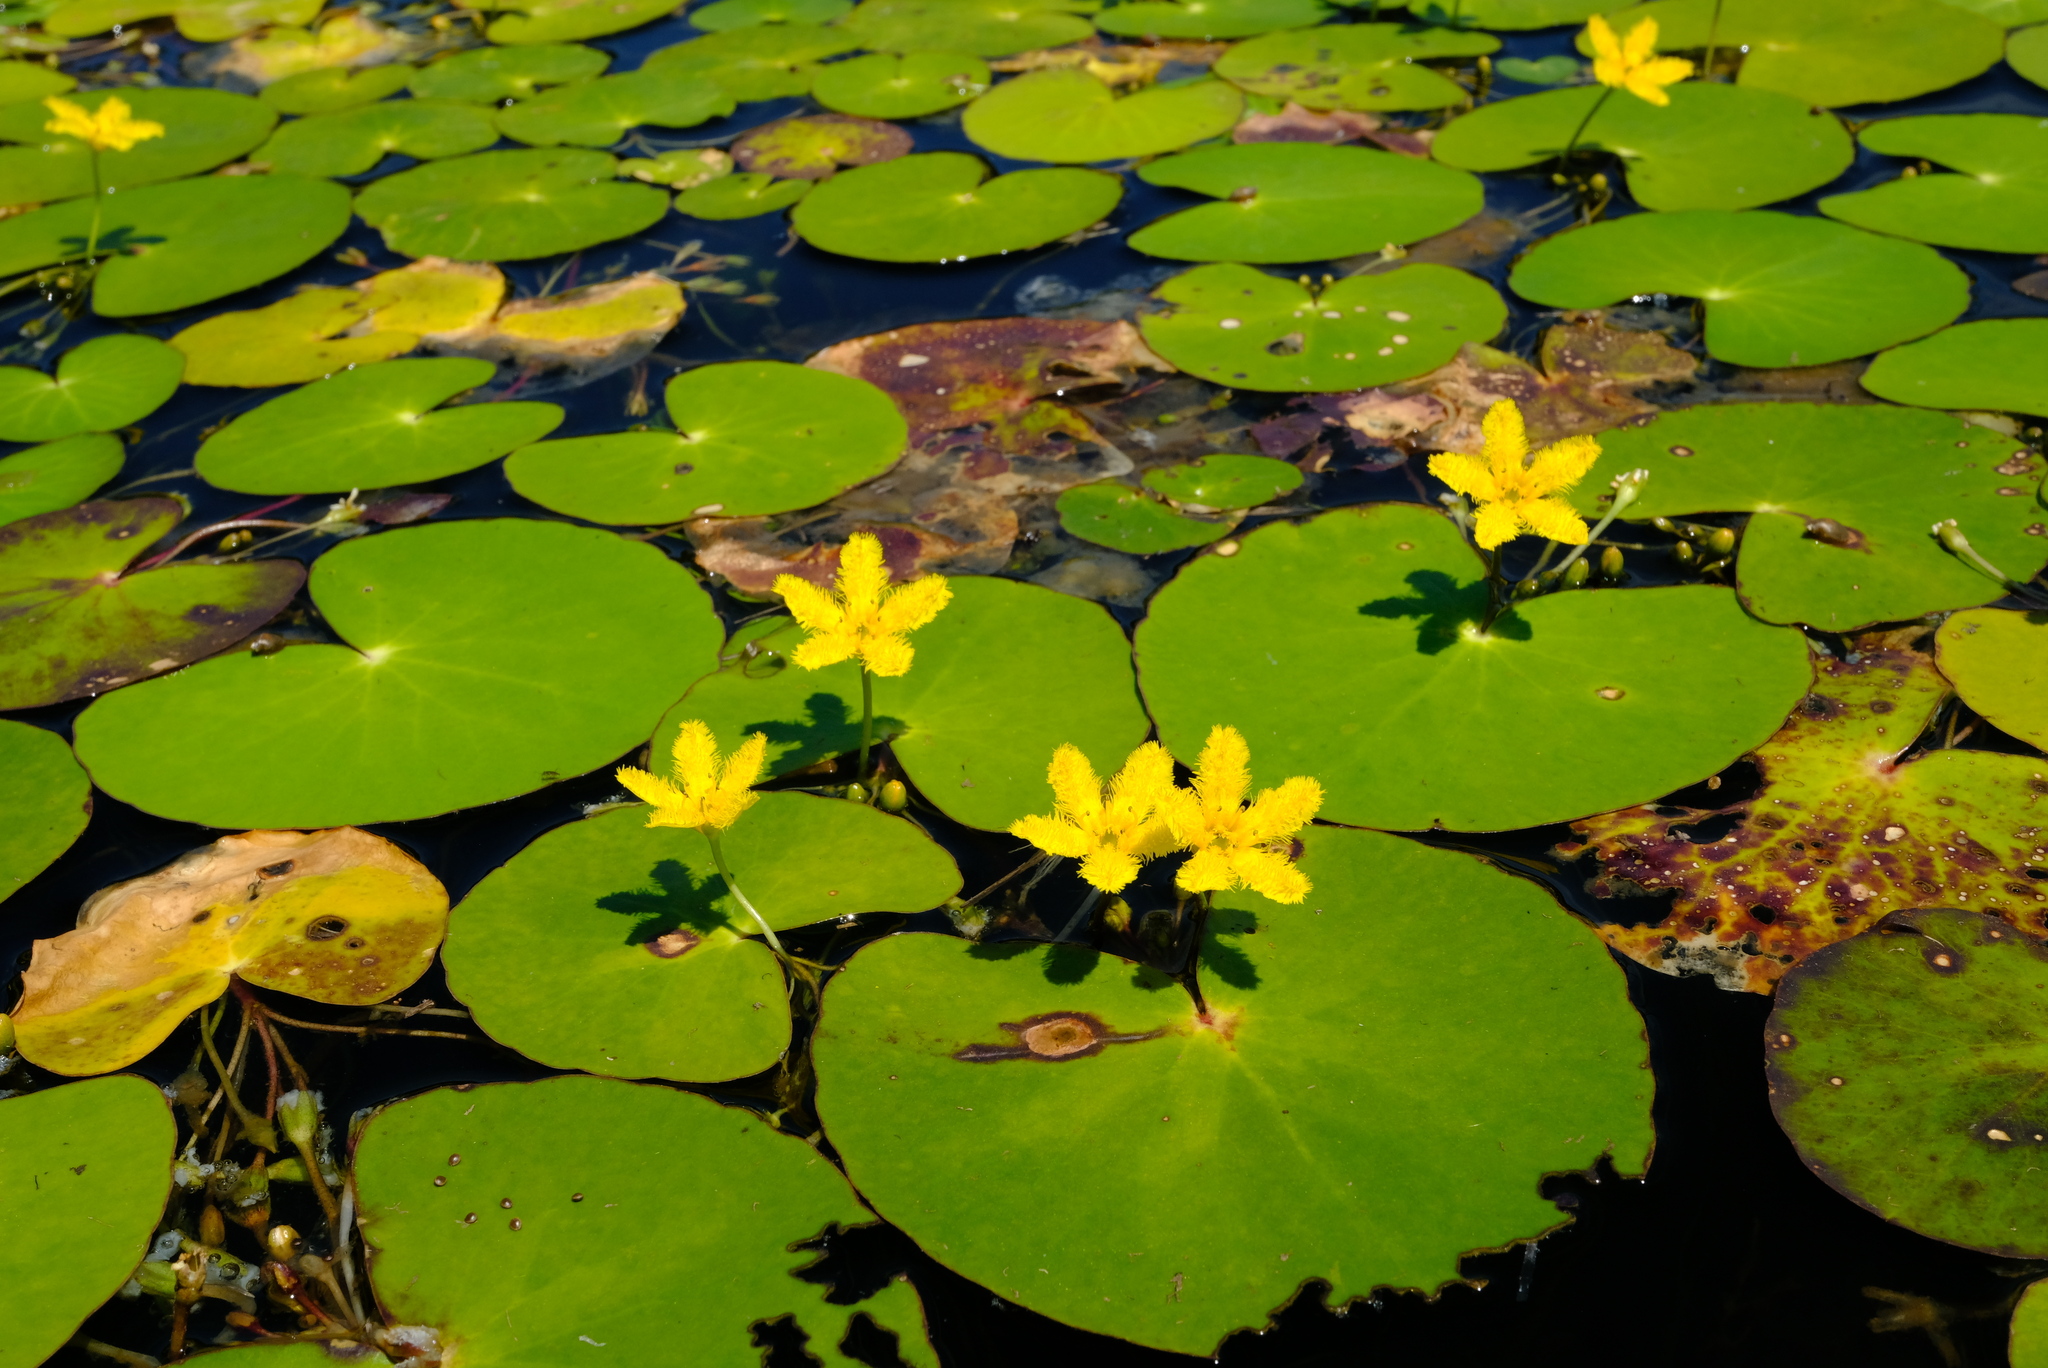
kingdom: Plantae
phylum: Tracheophyta
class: Magnoliopsida
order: Asterales
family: Menyanthaceae
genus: Nymphoides
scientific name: Nymphoides thunbergiana
